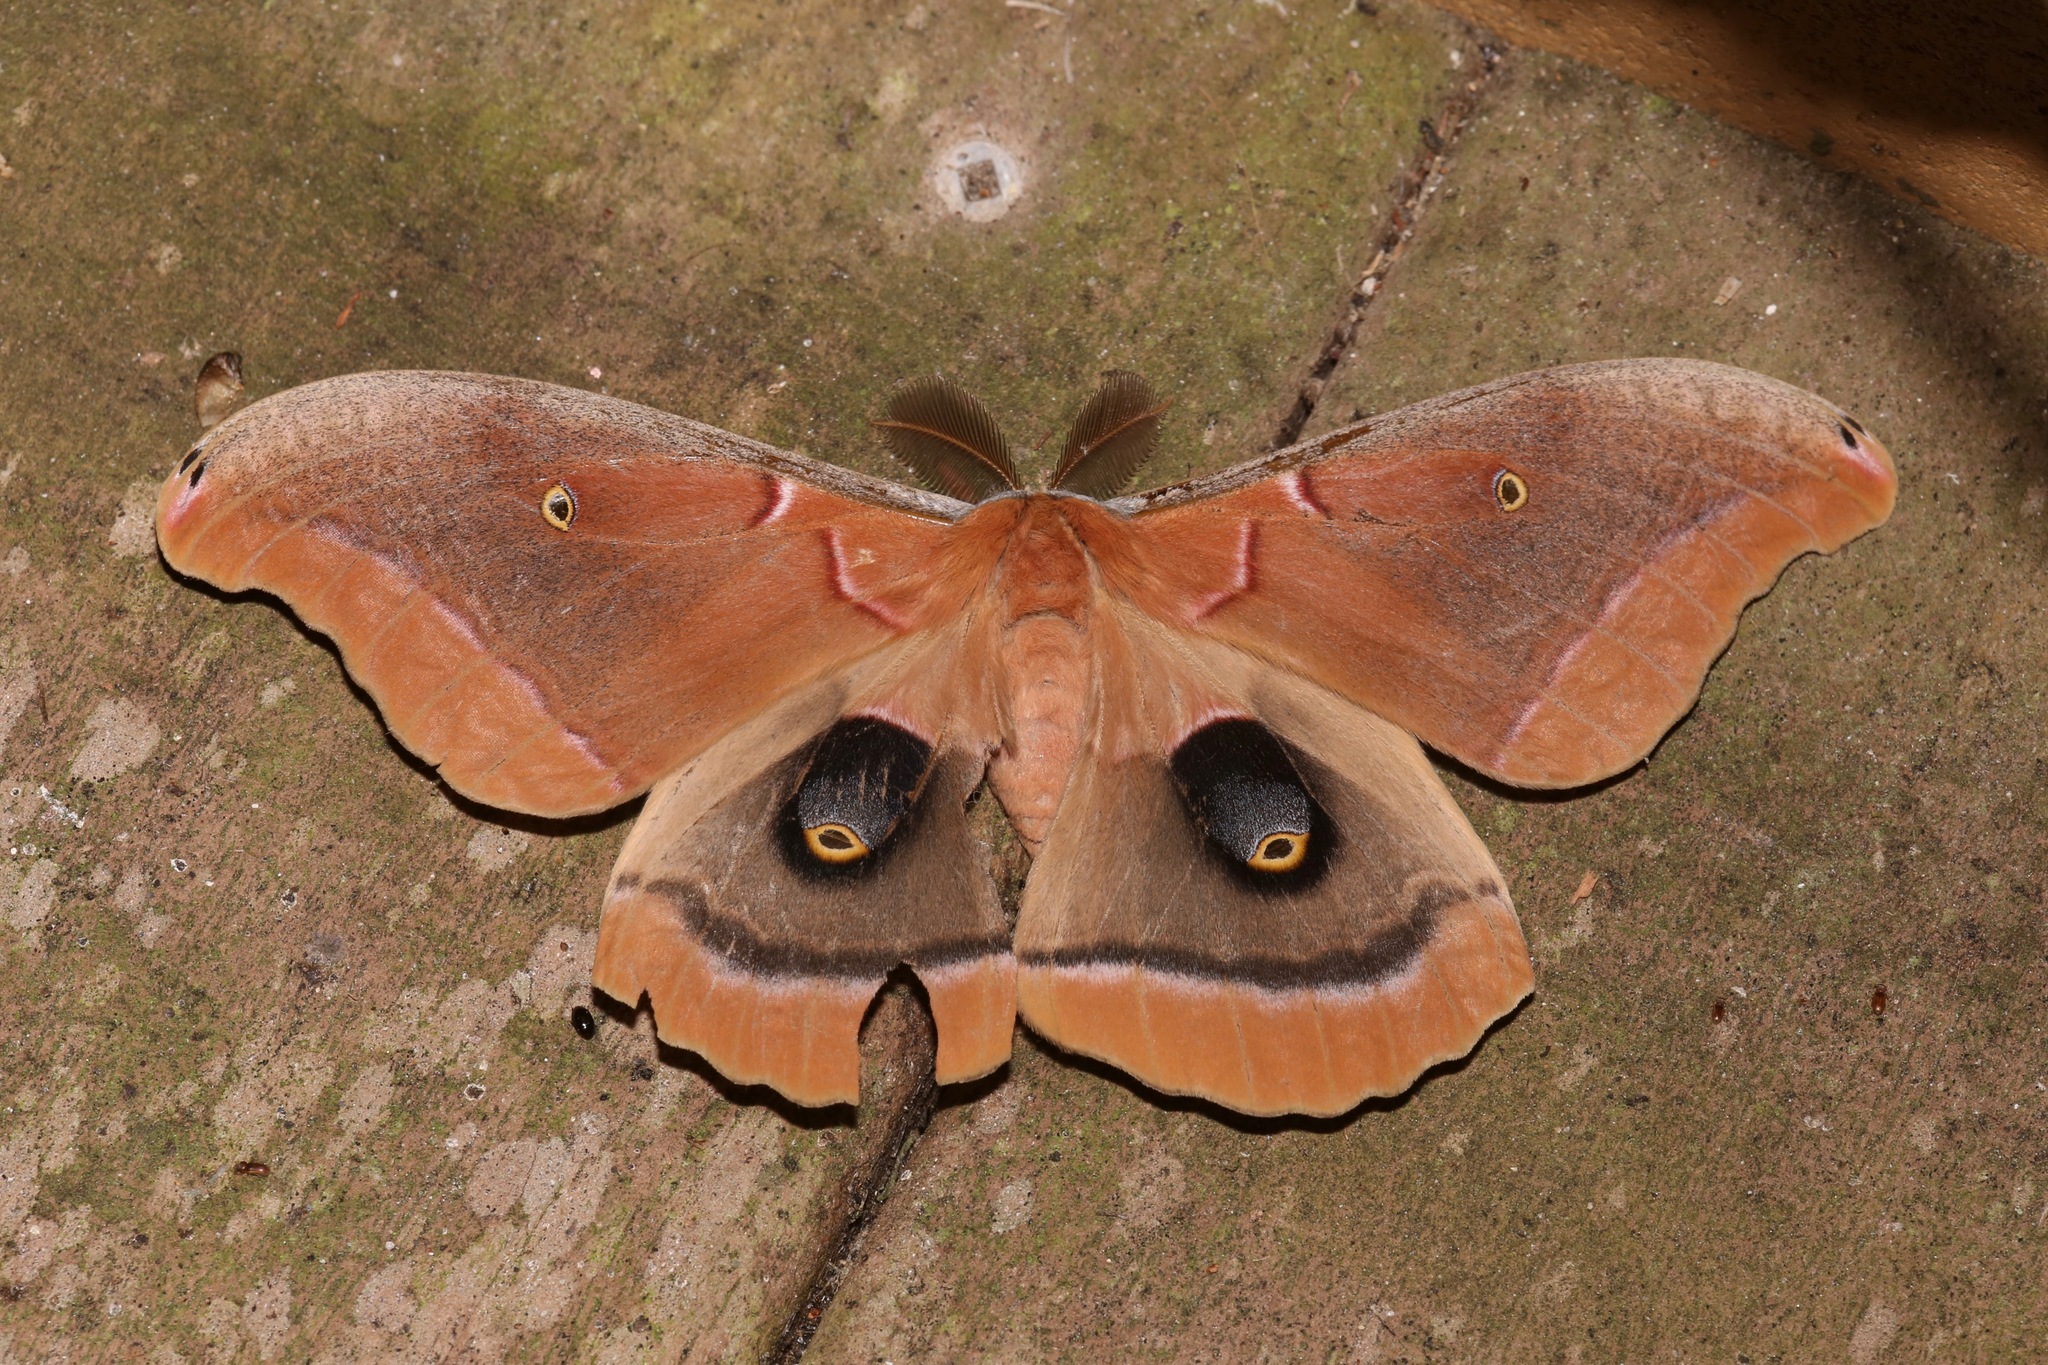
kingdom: Animalia
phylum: Arthropoda
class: Insecta
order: Lepidoptera
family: Saturniidae
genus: Antheraea
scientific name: Antheraea polyphemus
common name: Polyphemus moth
